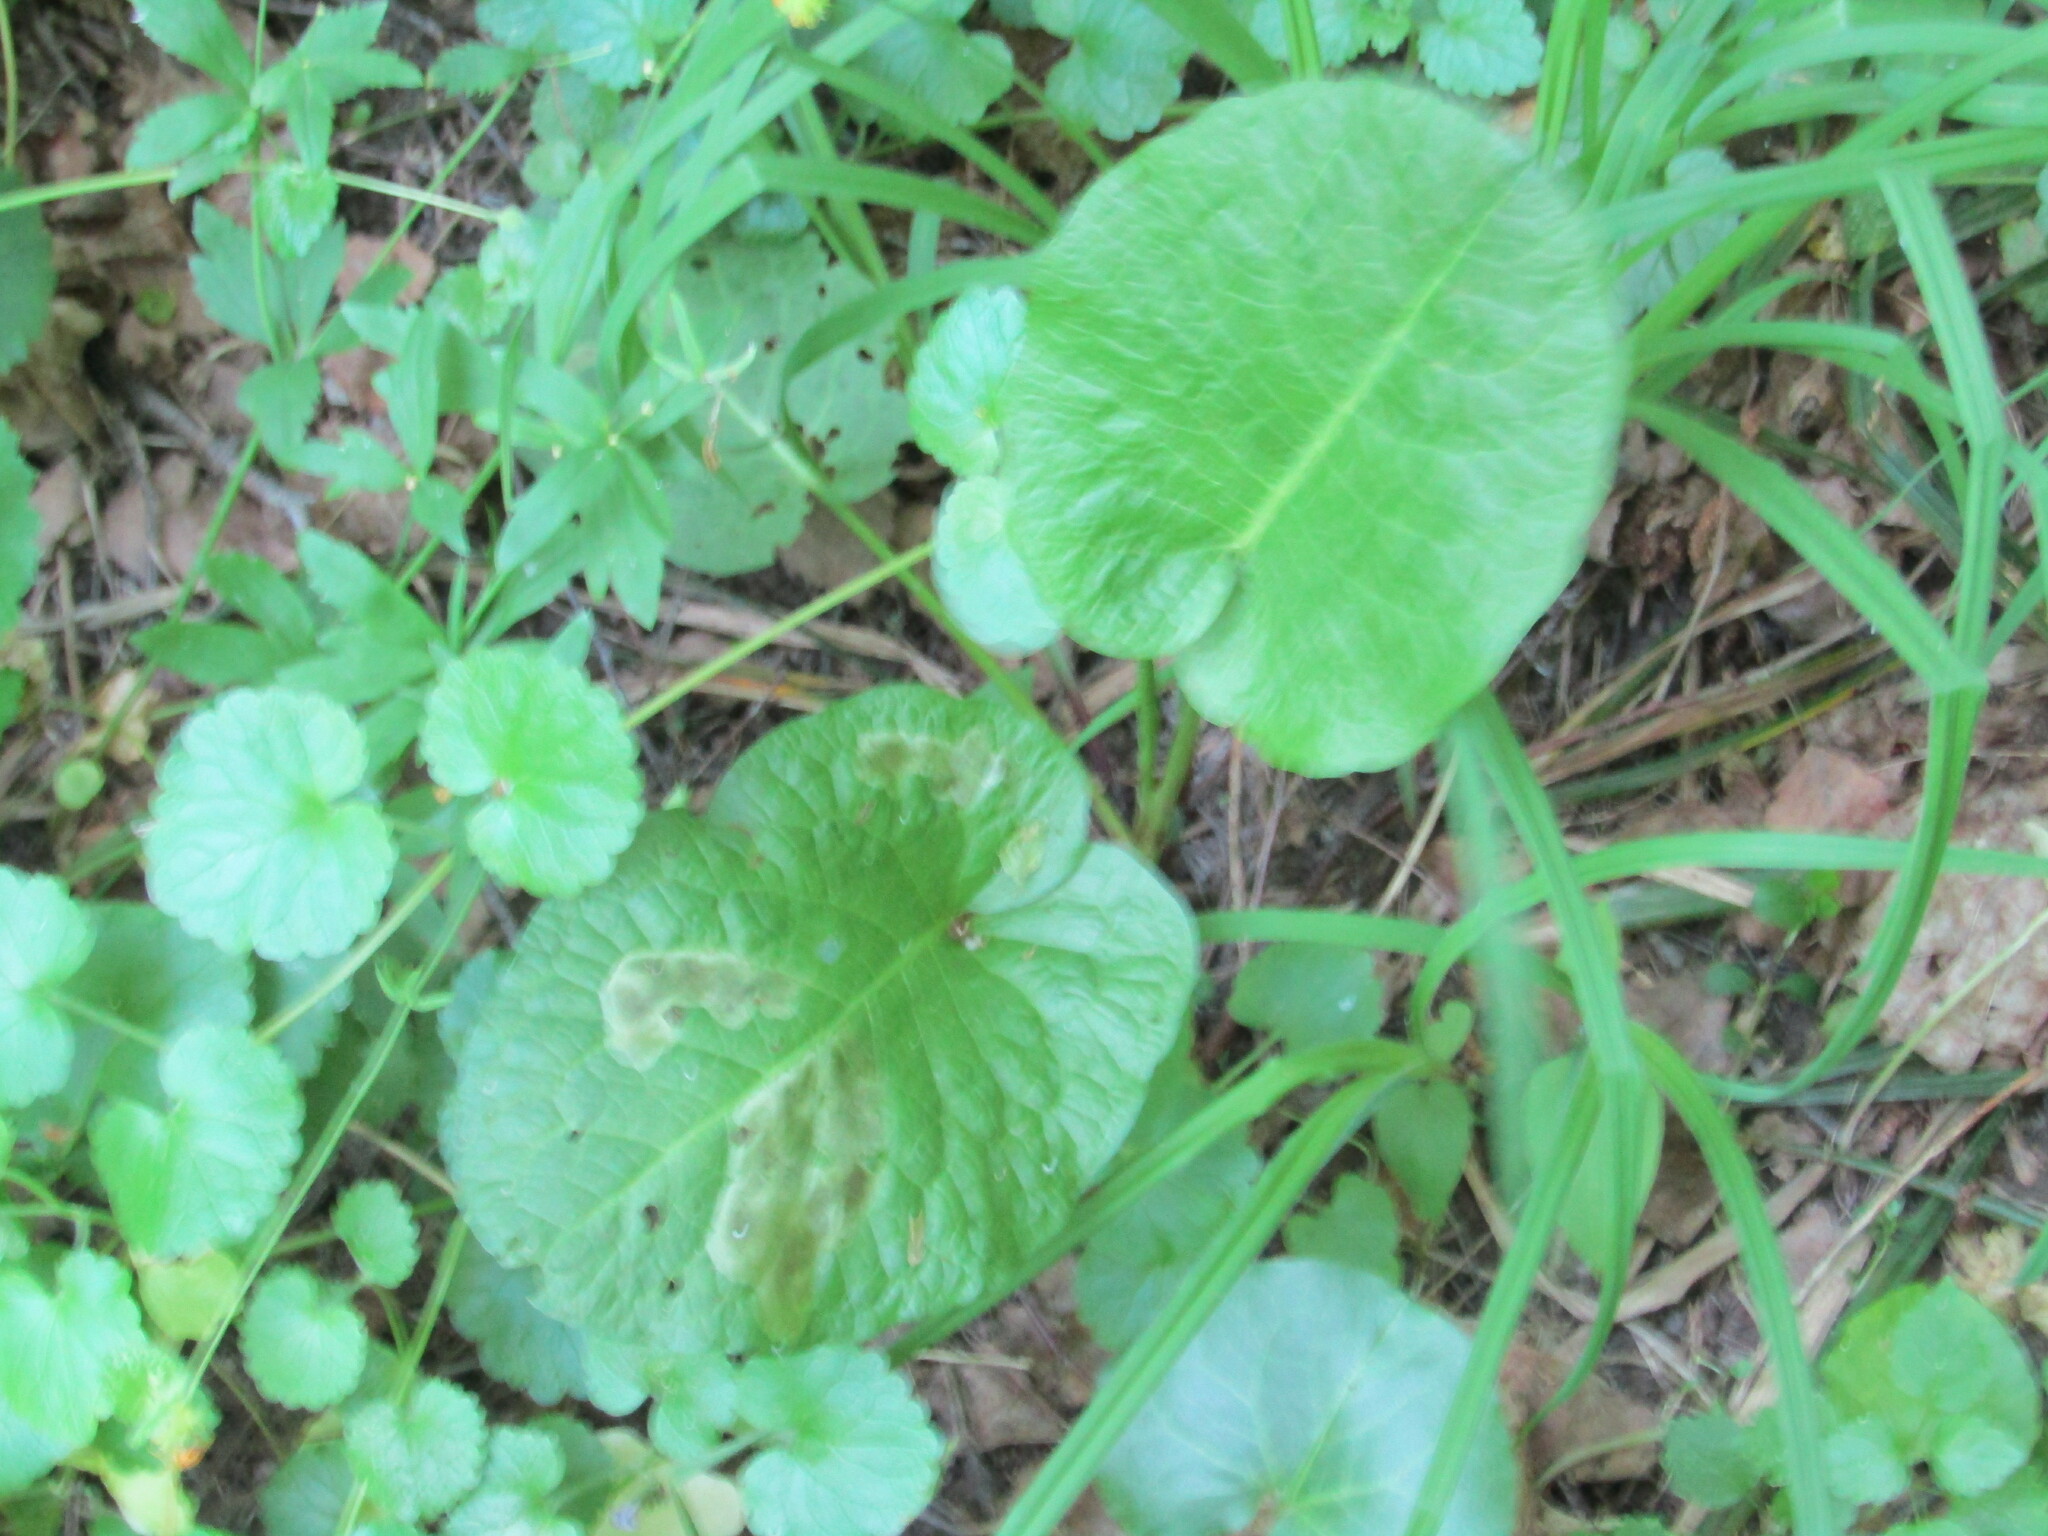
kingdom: Plantae
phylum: Tracheophyta
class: Magnoliopsida
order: Caryophyllales
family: Polygonaceae
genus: Rumex
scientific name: Rumex obtusifolius
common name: Bitter dock
